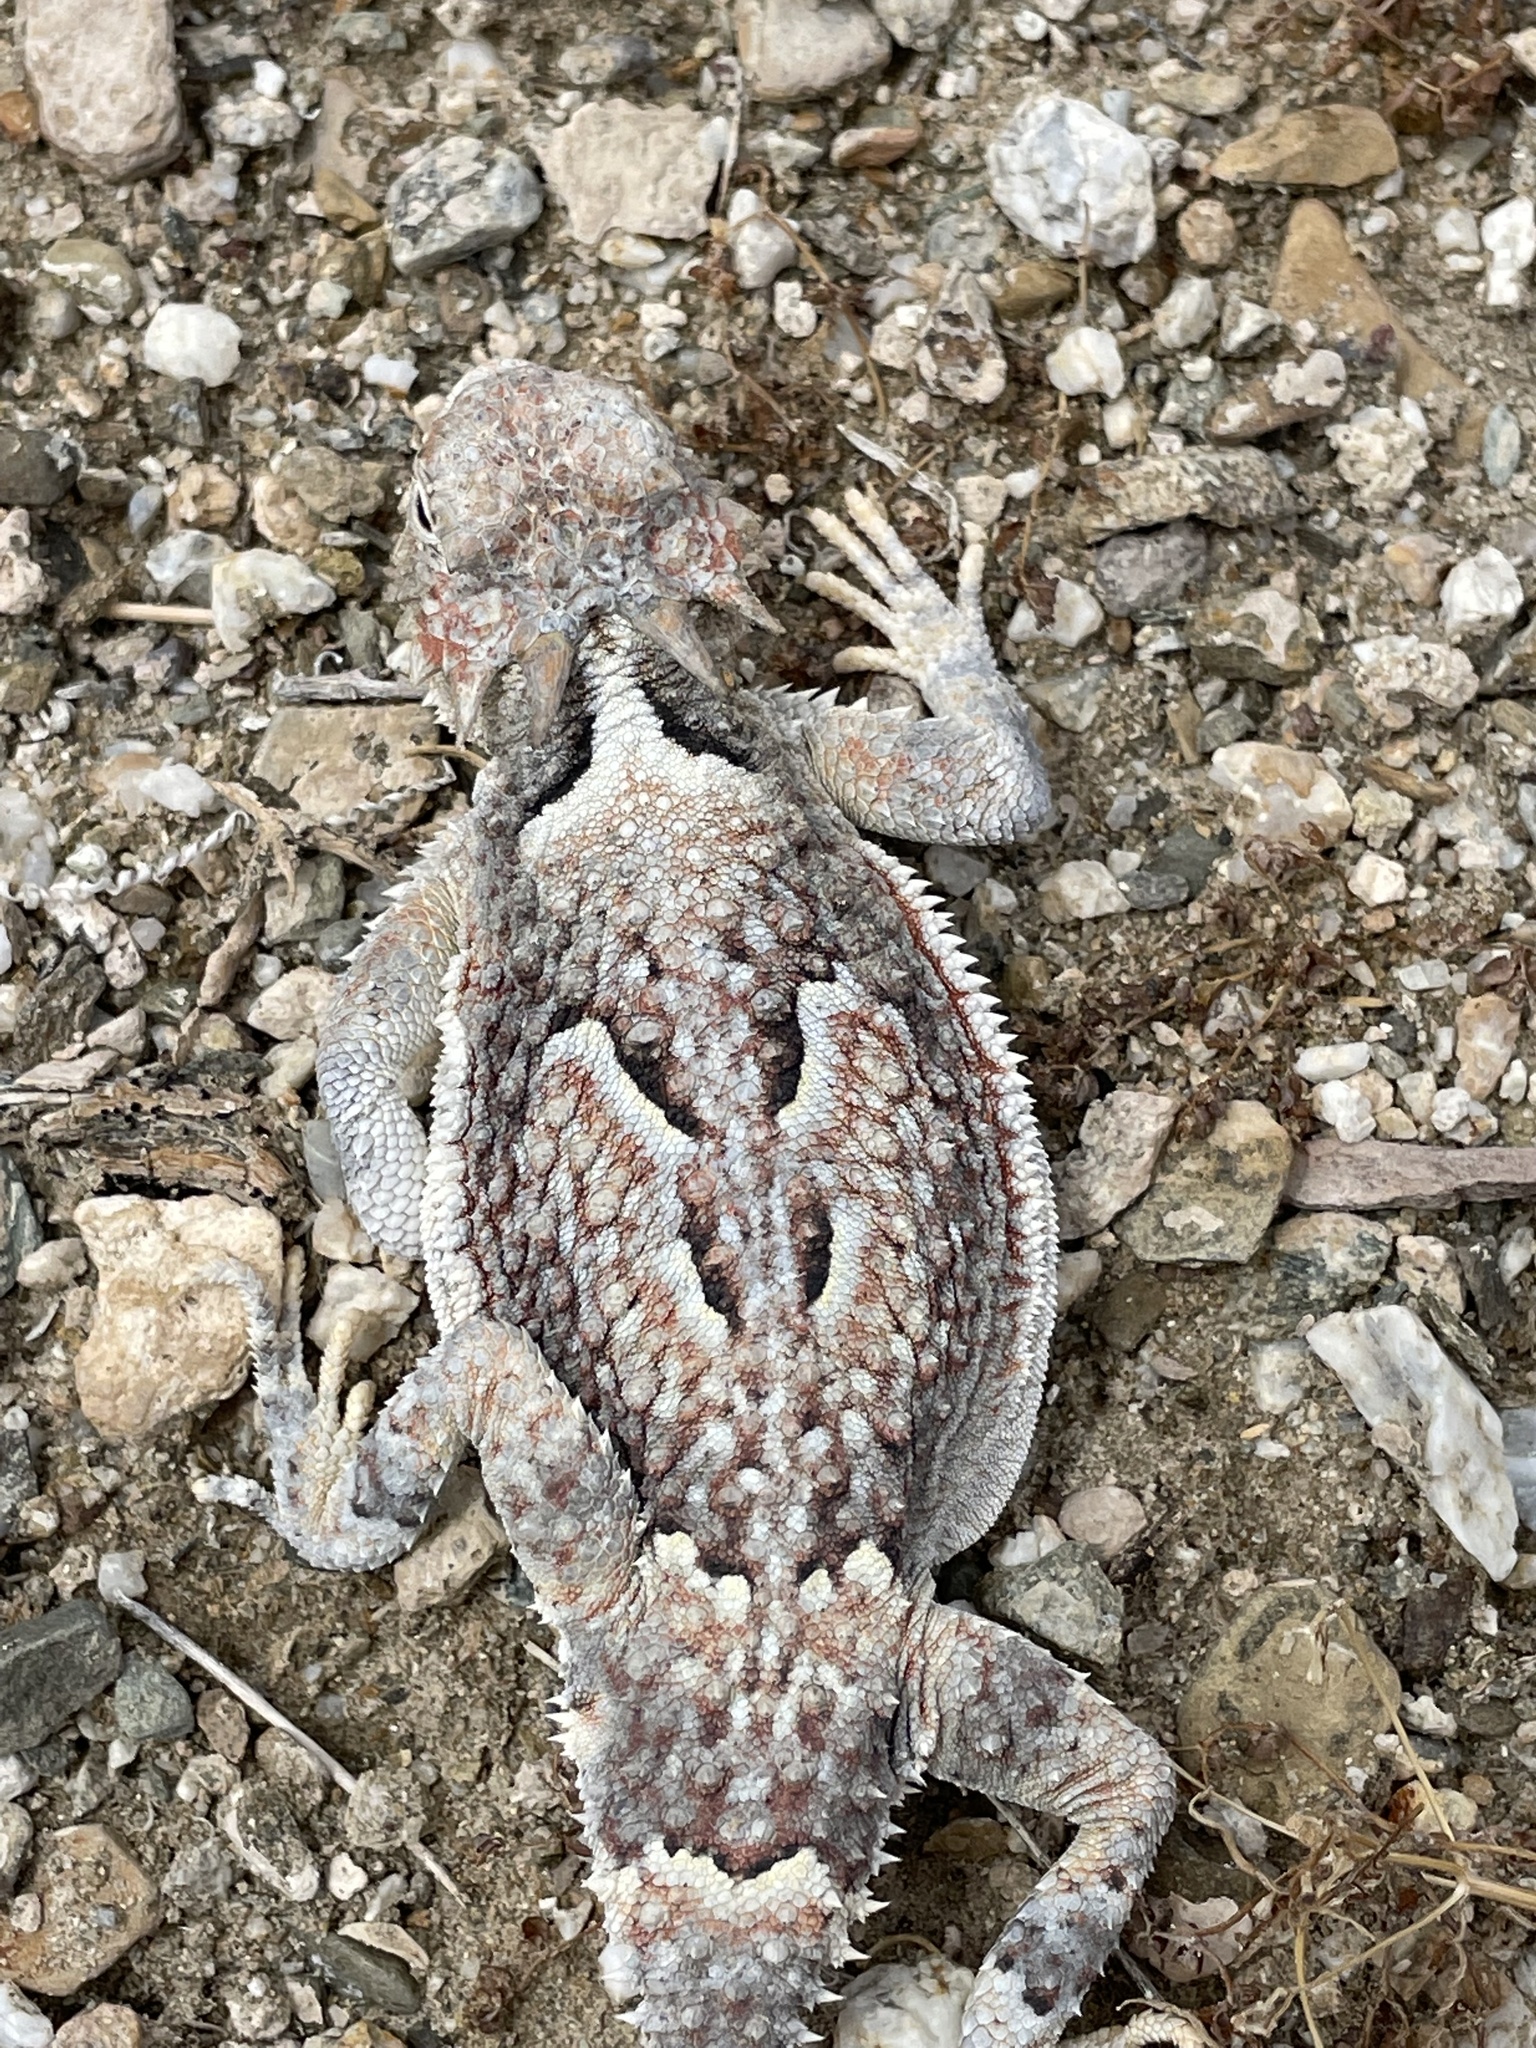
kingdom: Animalia
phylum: Chordata
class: Squamata
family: Phrynosomatidae
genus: Phrynosoma
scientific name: Phrynosoma platyrhinos
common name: Desert horned lizard
